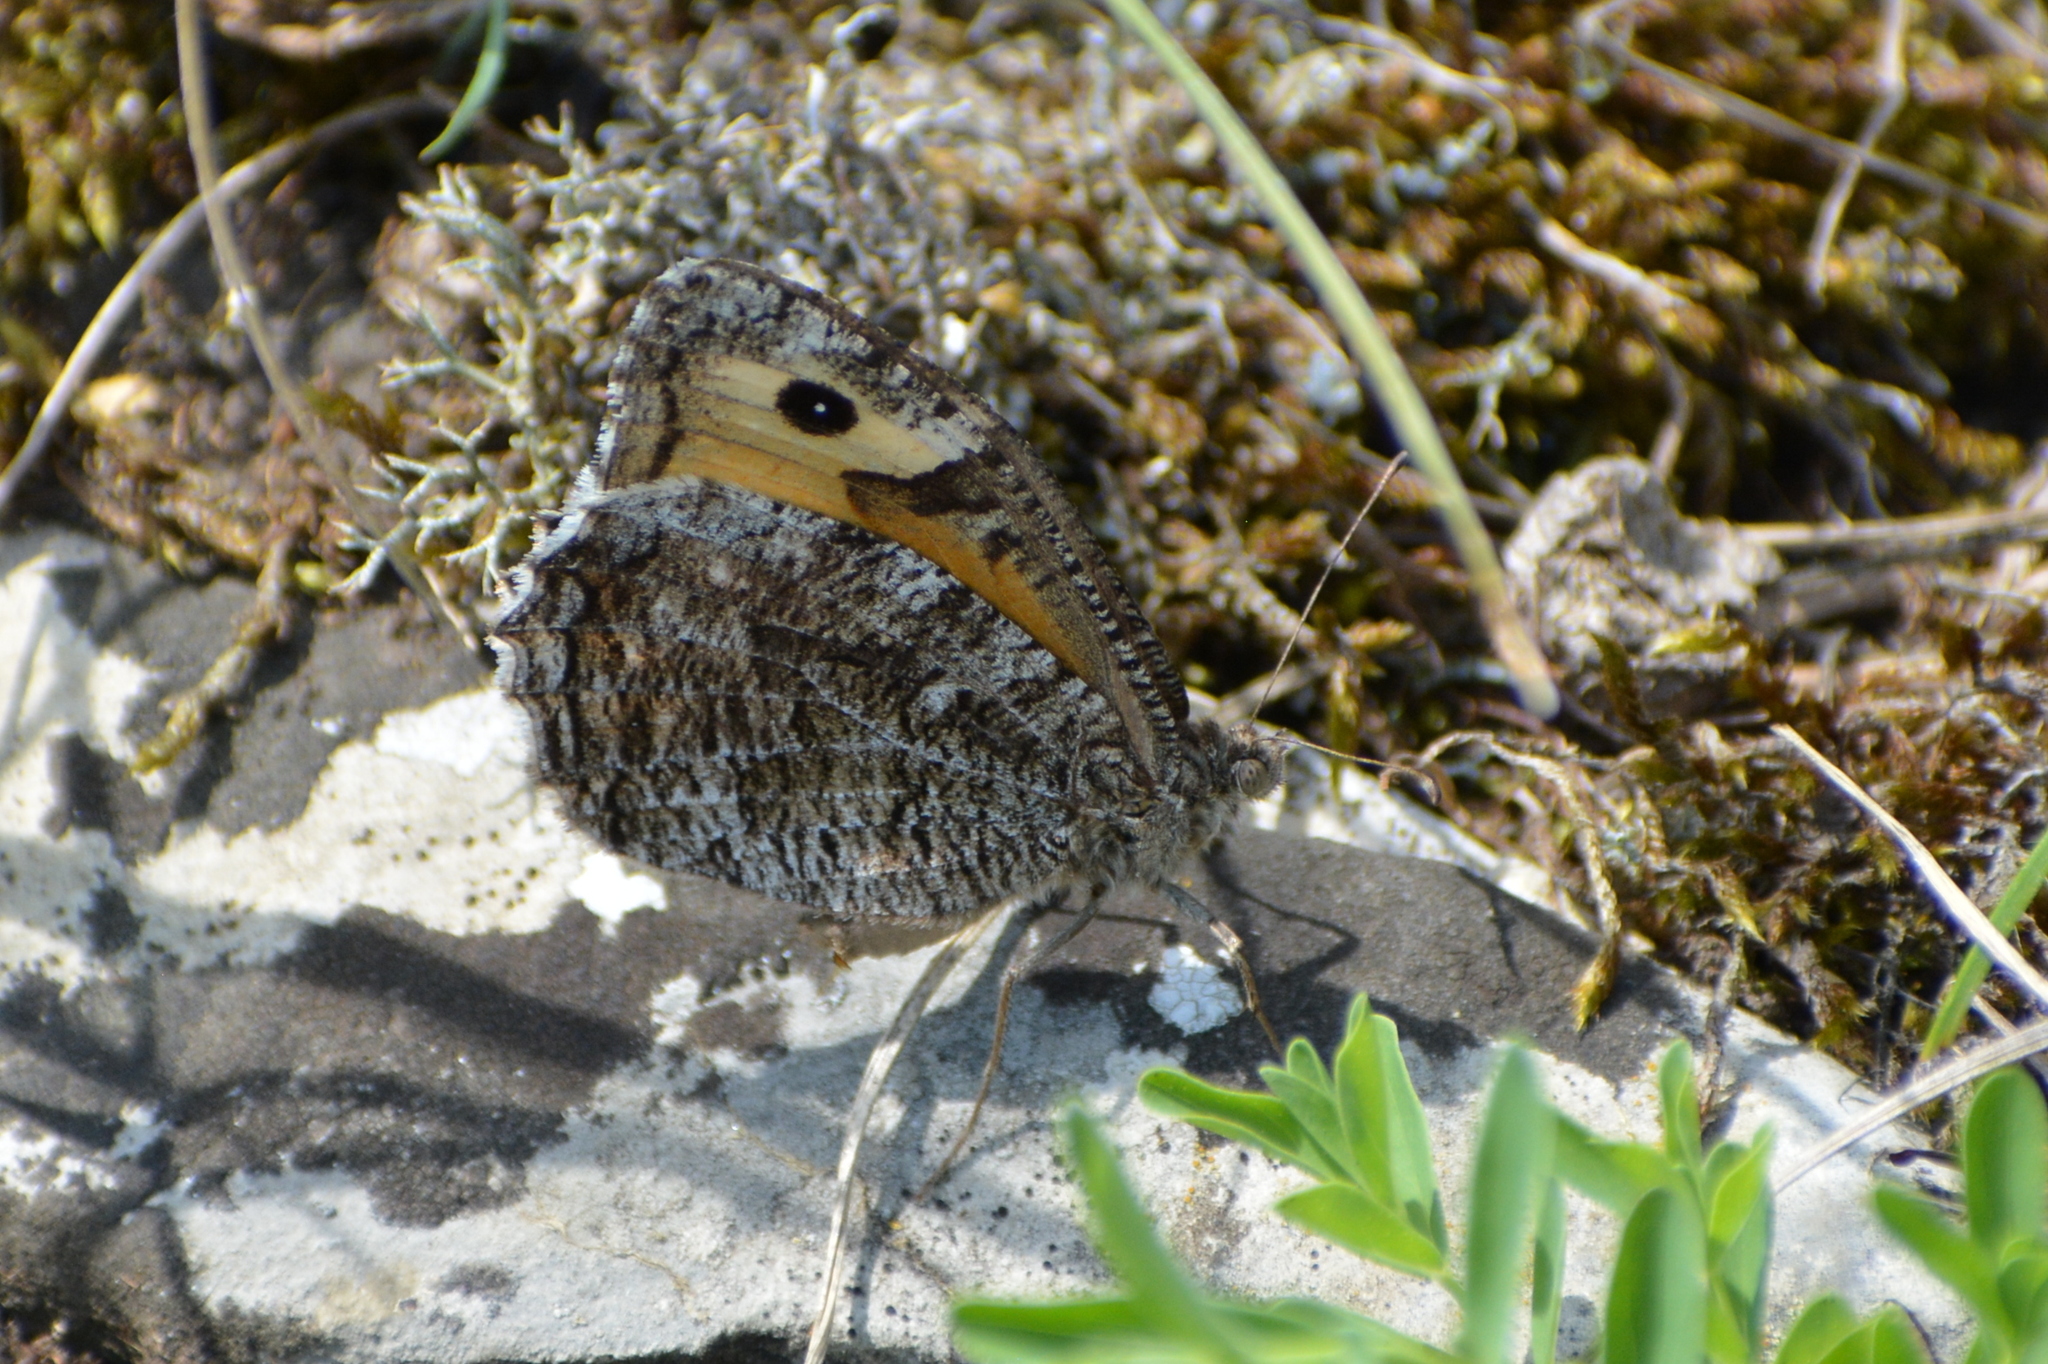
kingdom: Animalia
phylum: Arthropoda
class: Insecta
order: Lepidoptera
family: Nymphalidae
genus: Hipparchia
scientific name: Hipparchia semele
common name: Grayling
